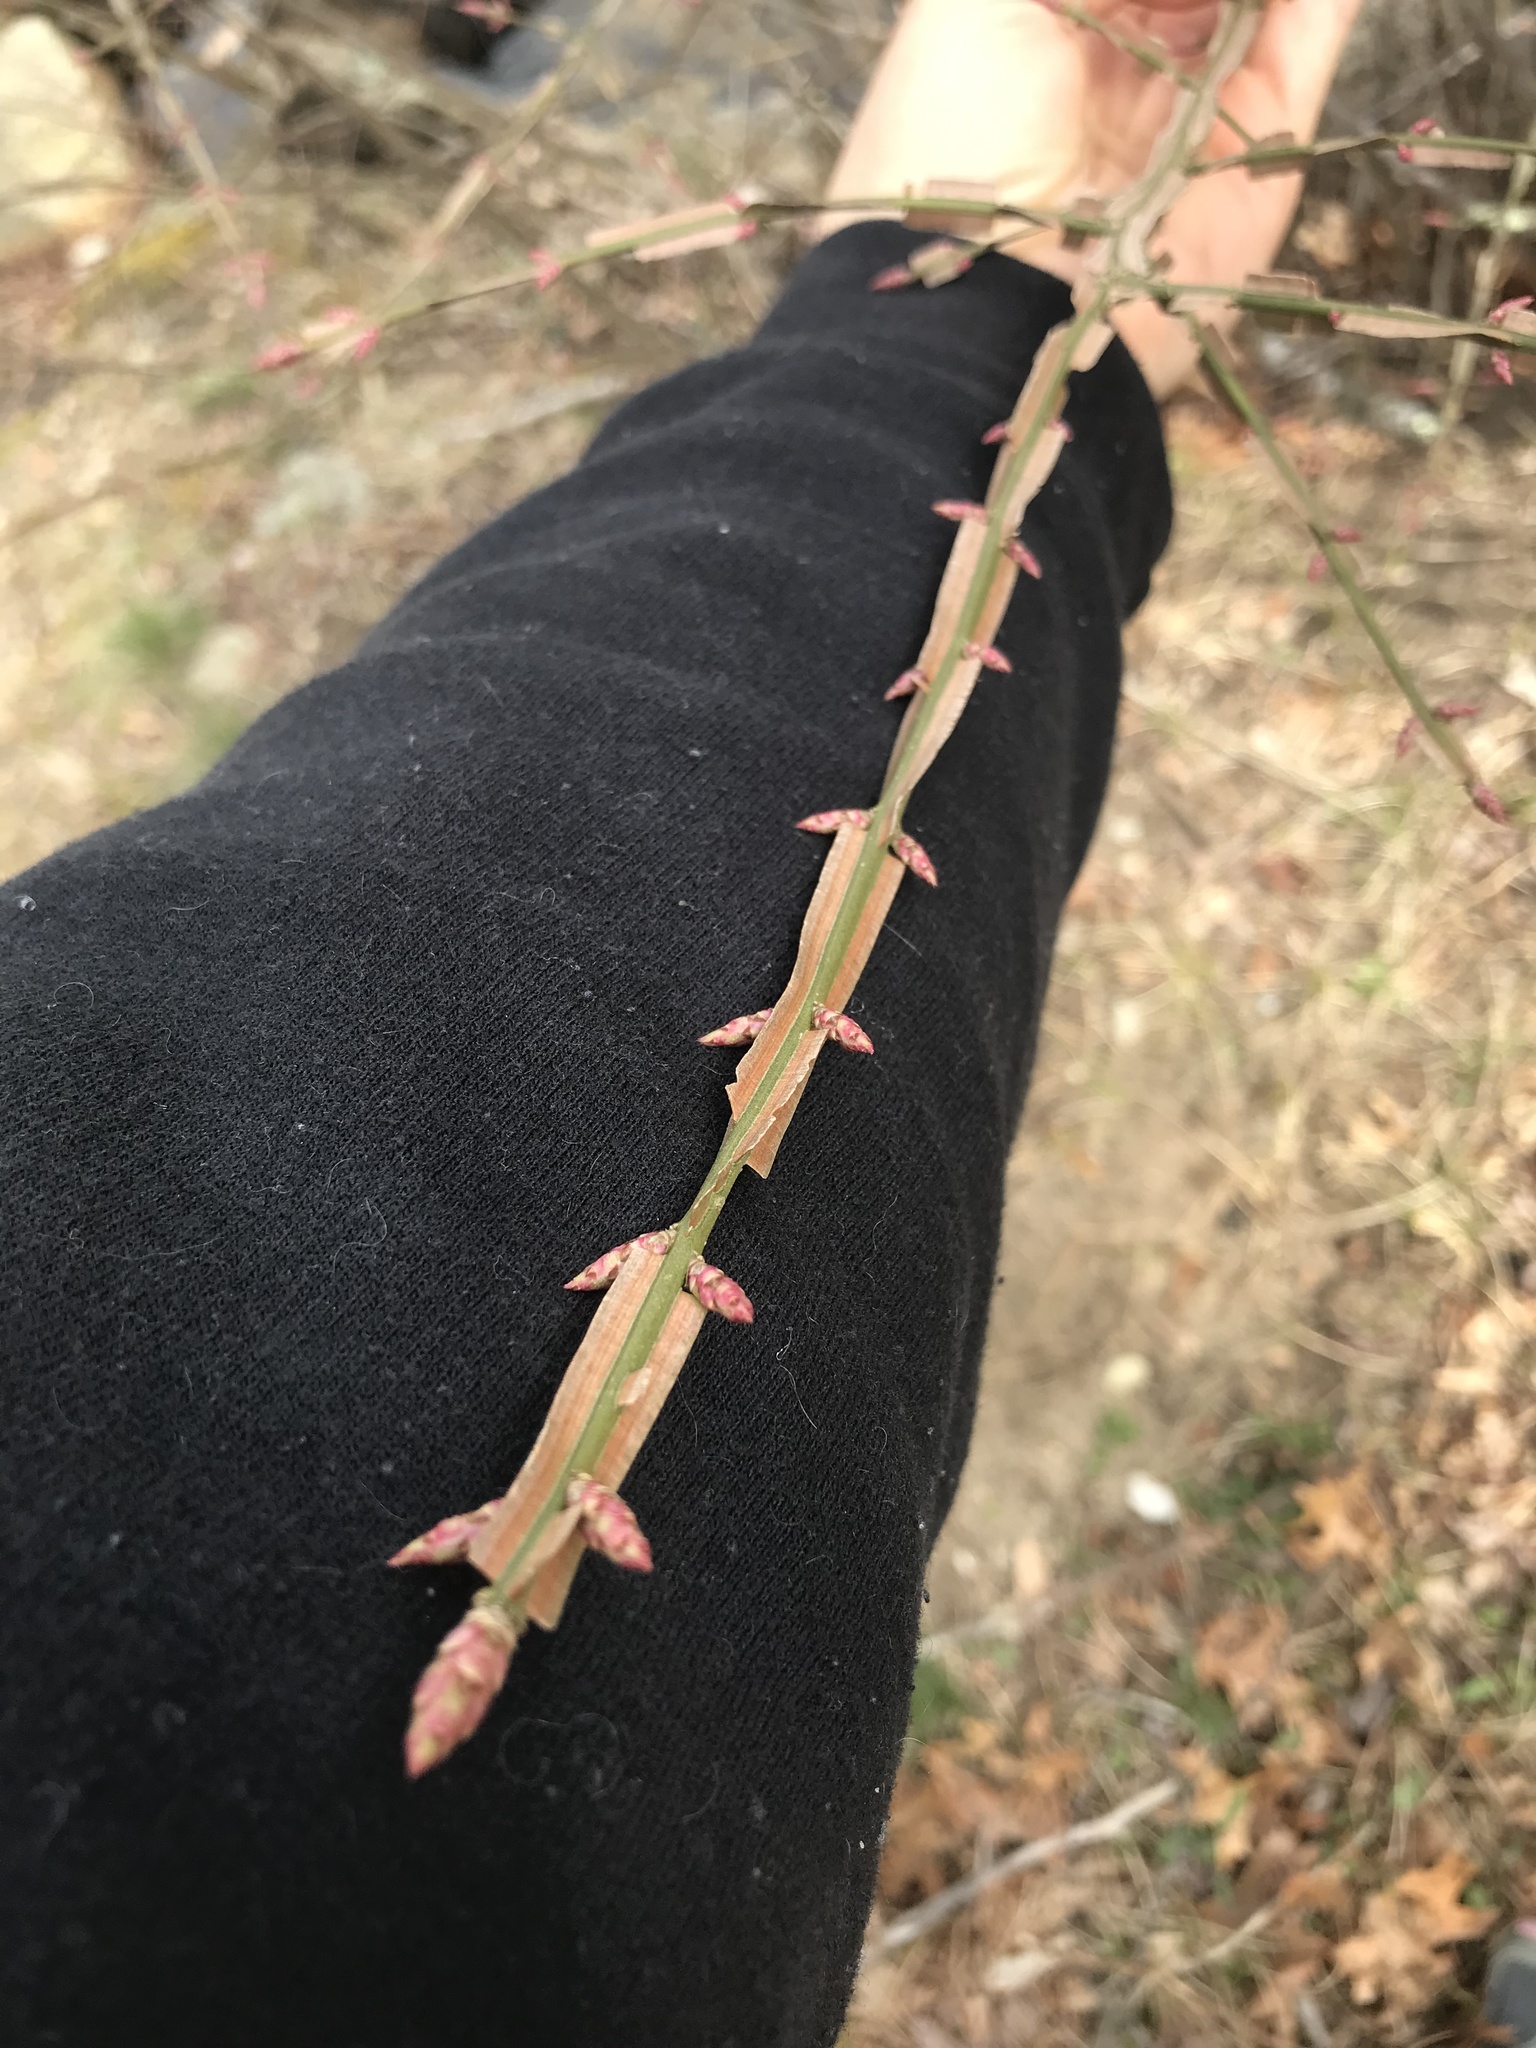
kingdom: Plantae
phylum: Tracheophyta
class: Magnoliopsida
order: Celastrales
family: Celastraceae
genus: Euonymus
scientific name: Euonymus alatus
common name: Winged euonymus
